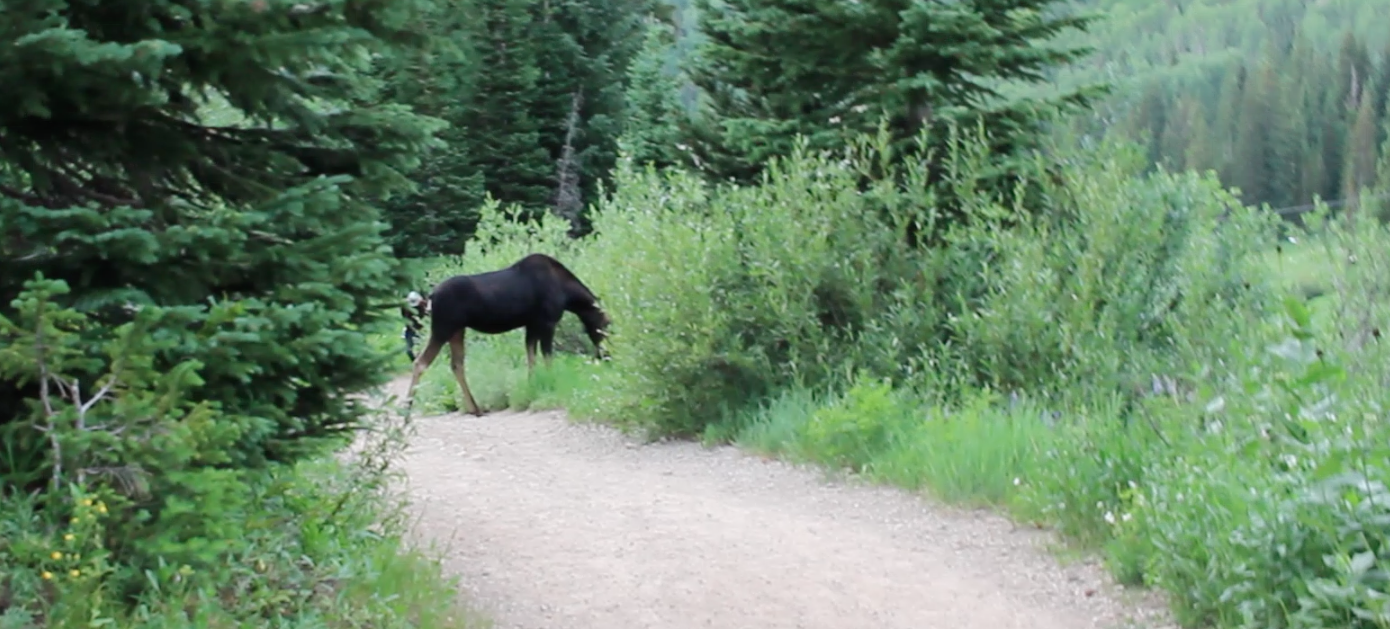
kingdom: Animalia
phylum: Chordata
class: Mammalia
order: Artiodactyla
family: Cervidae
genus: Alces
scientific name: Alces alces
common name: Moose
